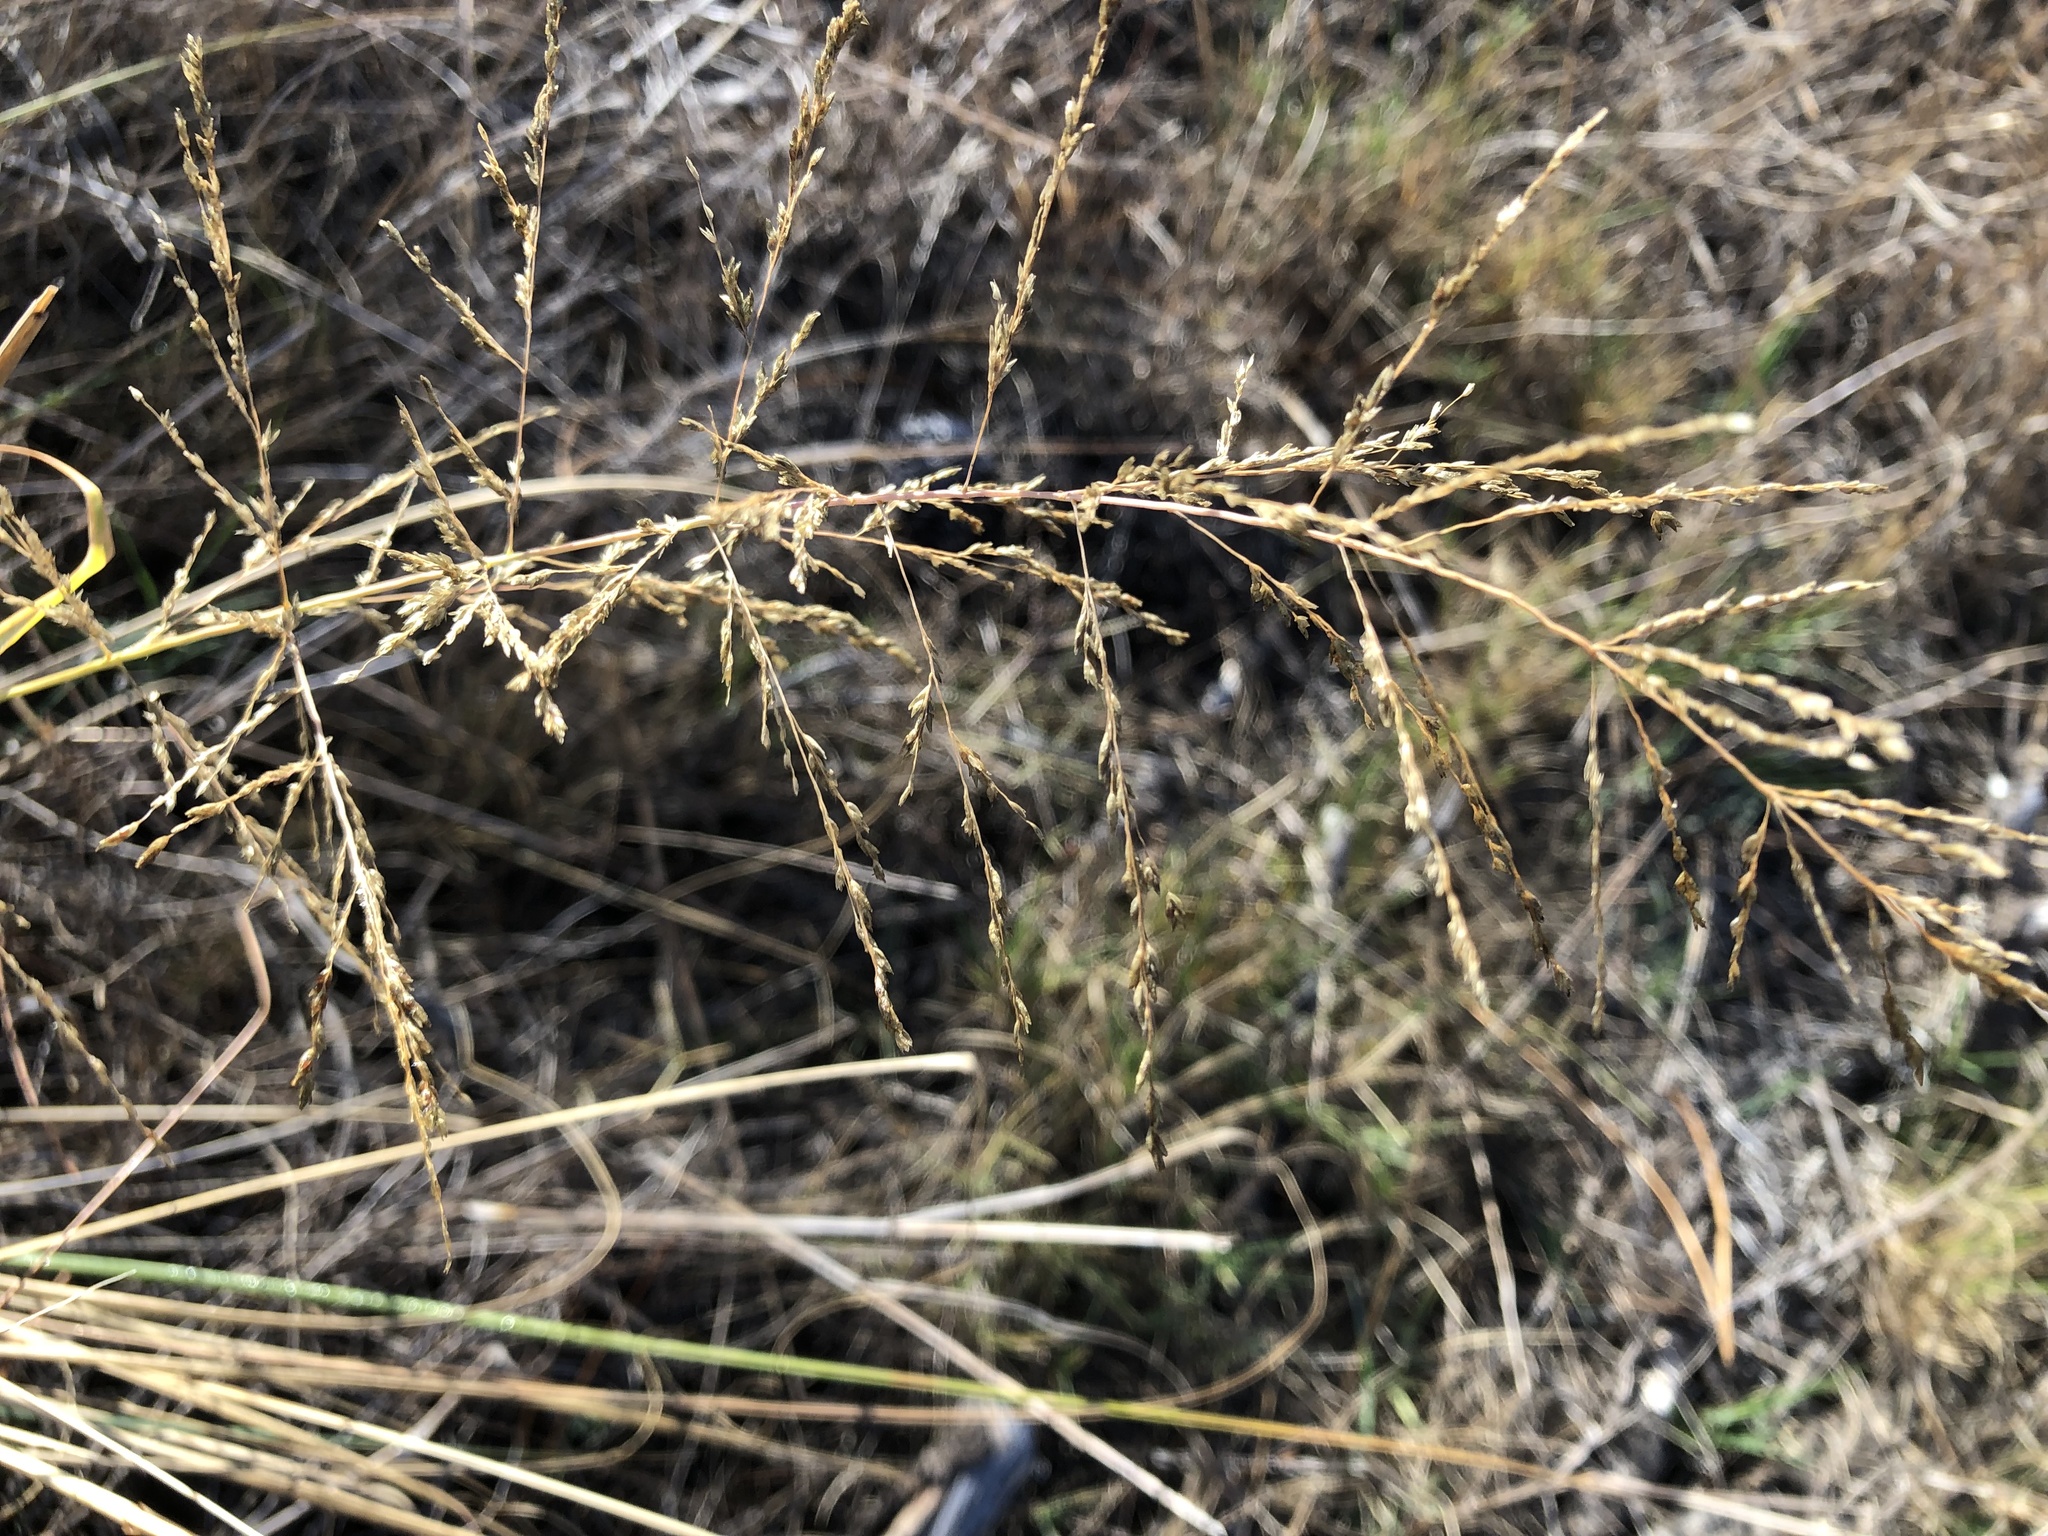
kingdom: Plantae
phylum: Tracheophyta
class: Liliopsida
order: Poales
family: Poaceae
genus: Eragrostis
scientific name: Eragrostis curvula
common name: African love-grass
